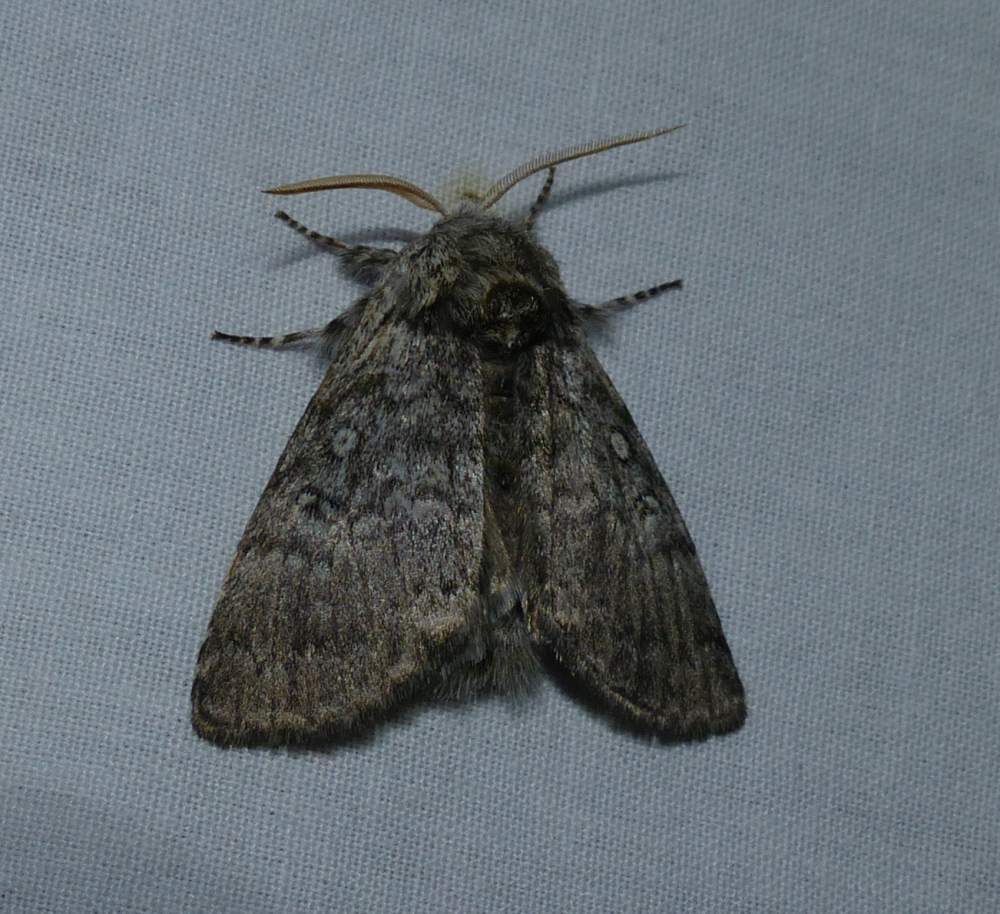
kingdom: Animalia
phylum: Arthropoda
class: Insecta
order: Lepidoptera
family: Noctuidae
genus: Colocasia
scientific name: Colocasia propinquilinea
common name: Close-banded demas
